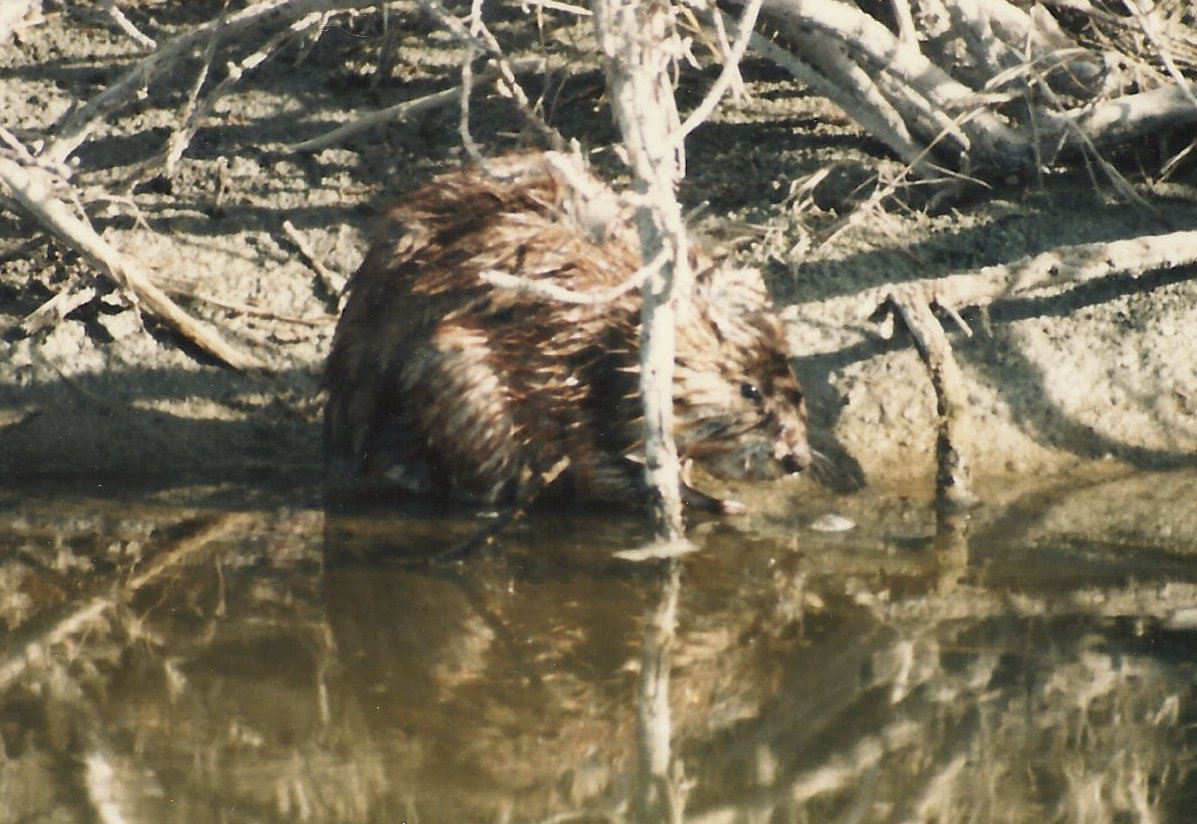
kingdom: Animalia
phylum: Chordata
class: Mammalia
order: Rodentia
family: Cricetidae
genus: Ondatra
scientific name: Ondatra zibethicus
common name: Muskrat
